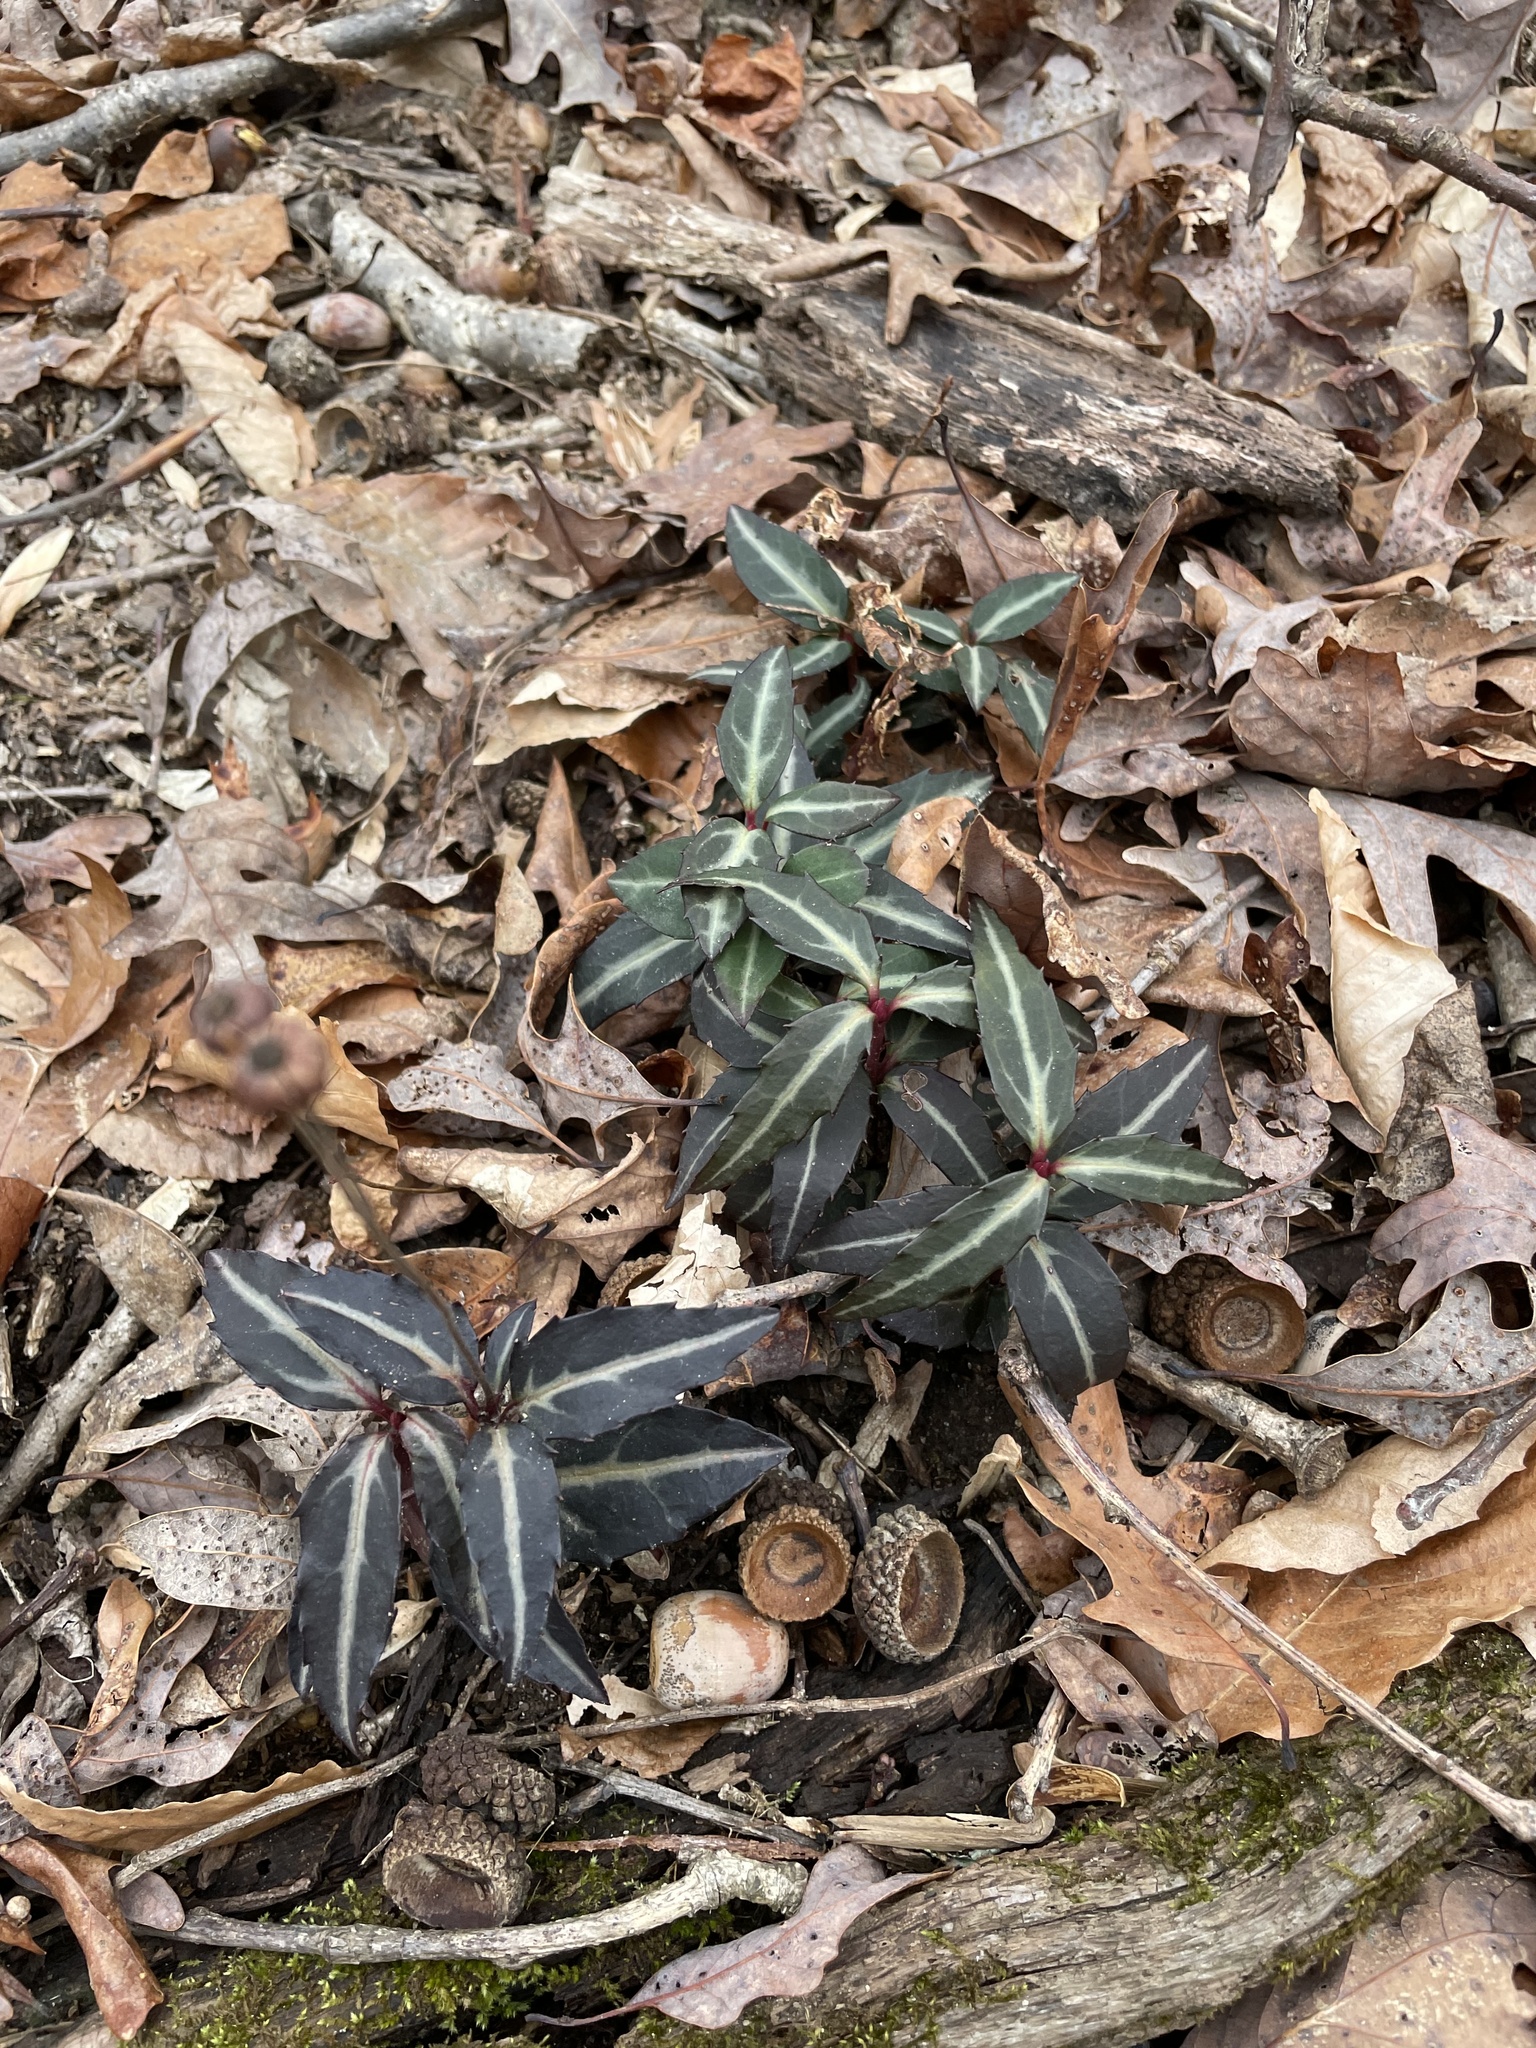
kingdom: Plantae
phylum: Tracheophyta
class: Magnoliopsida
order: Ericales
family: Ericaceae
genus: Chimaphila
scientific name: Chimaphila maculata
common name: Spotted pipsissewa
